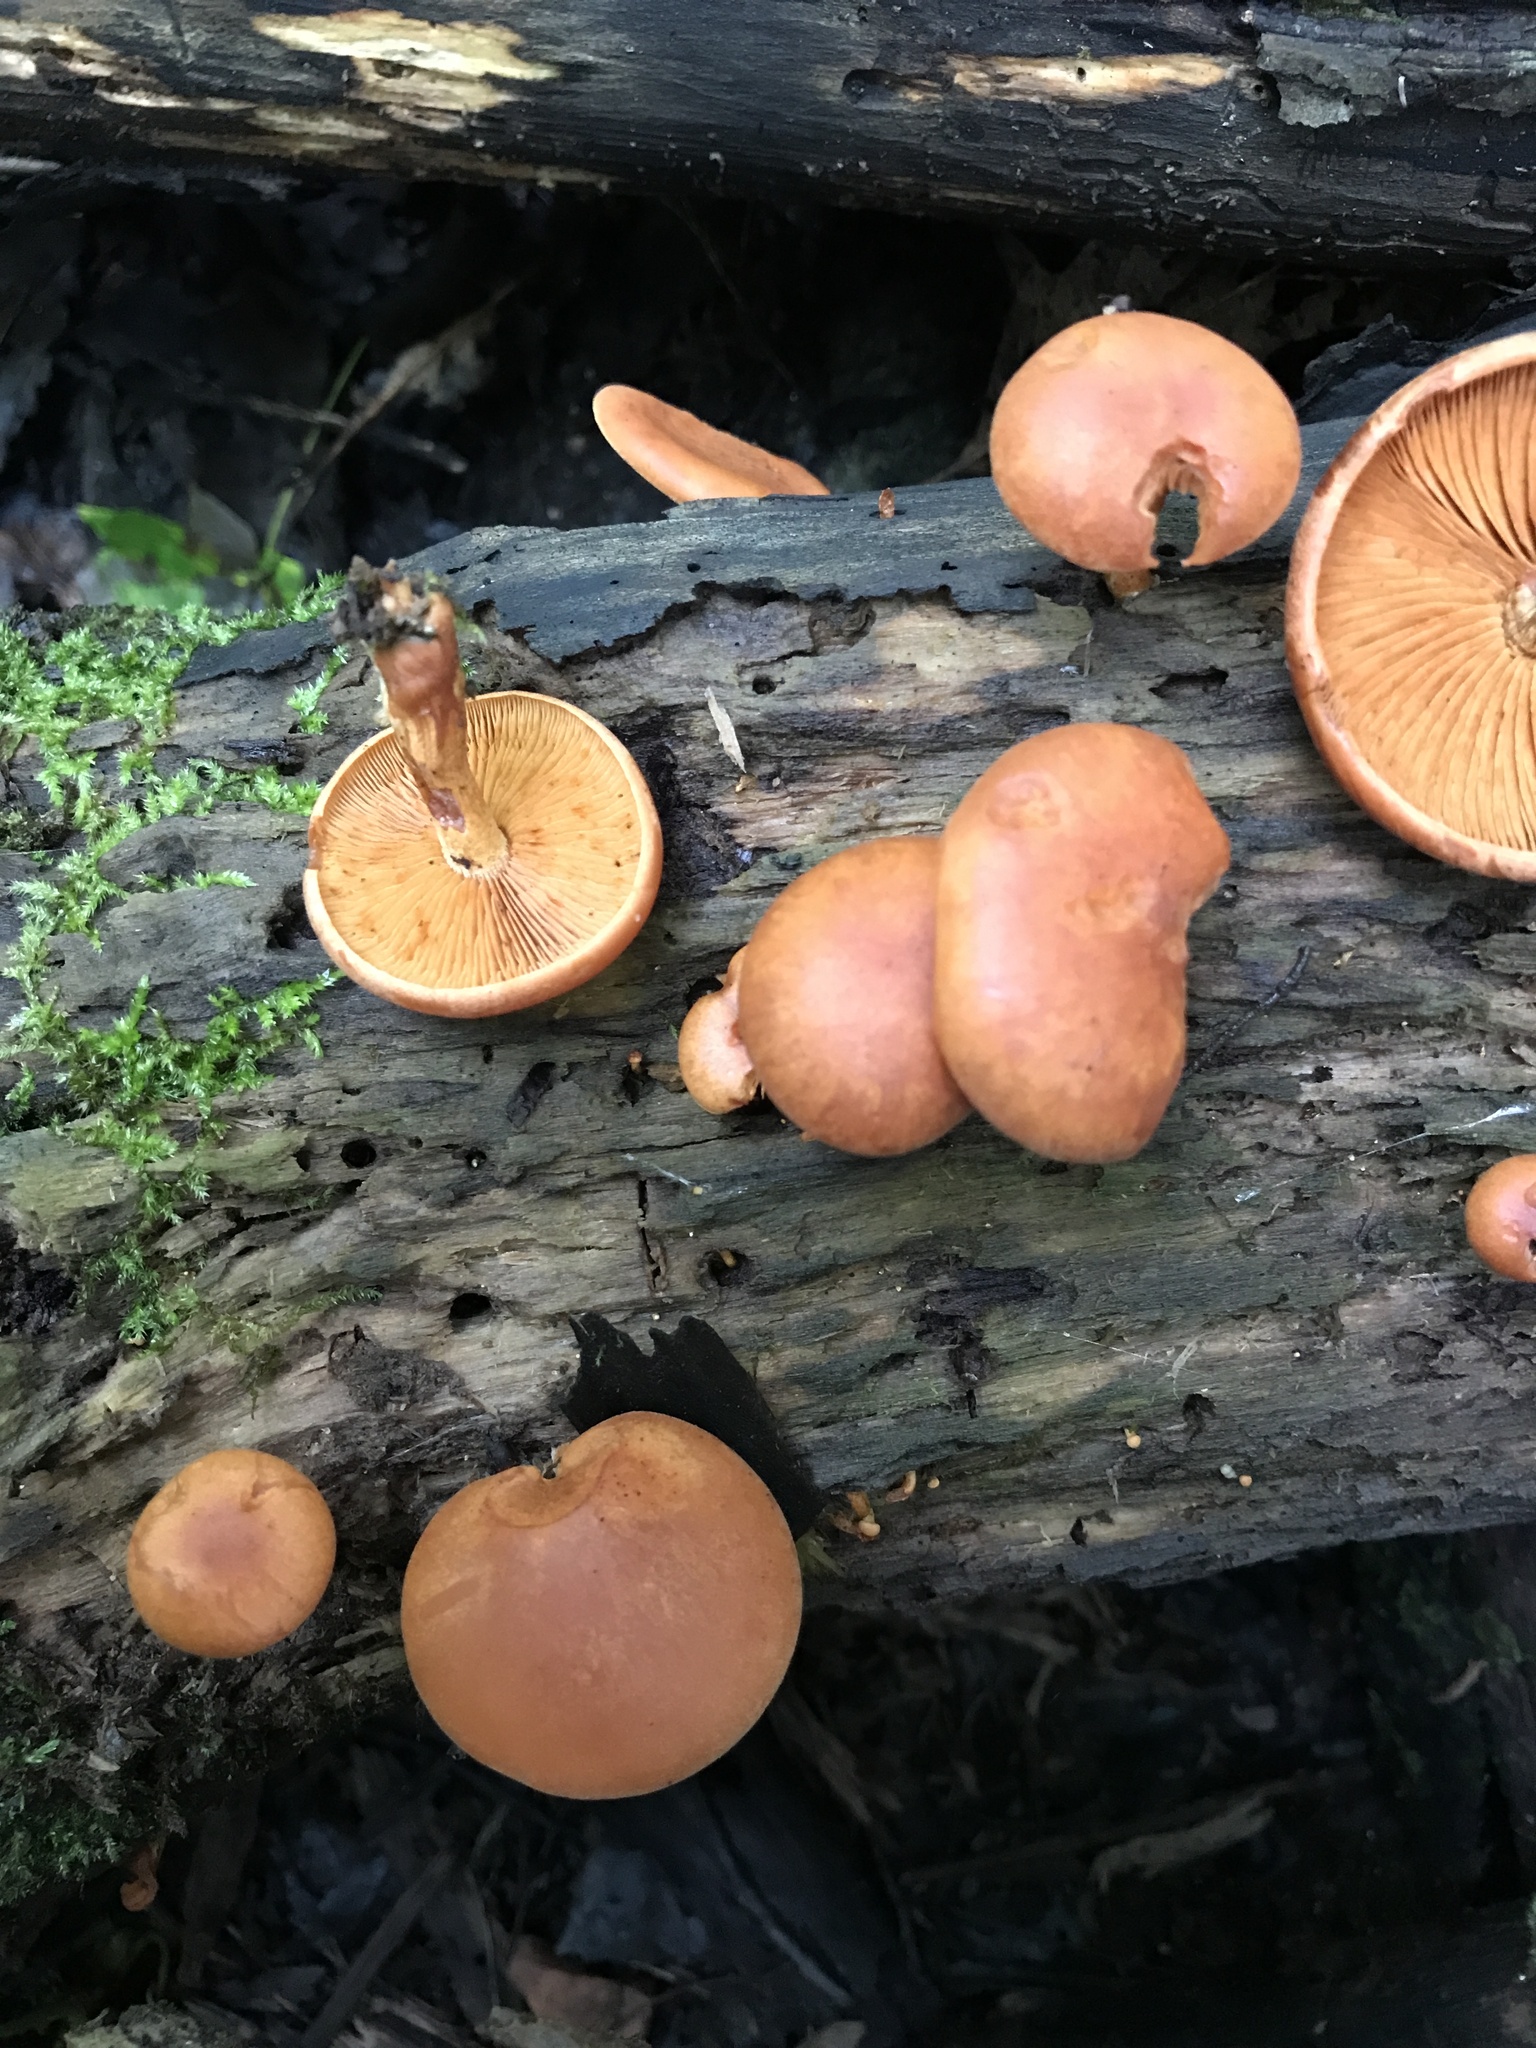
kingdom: Fungi
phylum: Basidiomycota
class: Agaricomycetes
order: Agaricales
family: Hymenogastraceae
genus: Gymnopilus
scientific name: Gymnopilus liquiritiae
